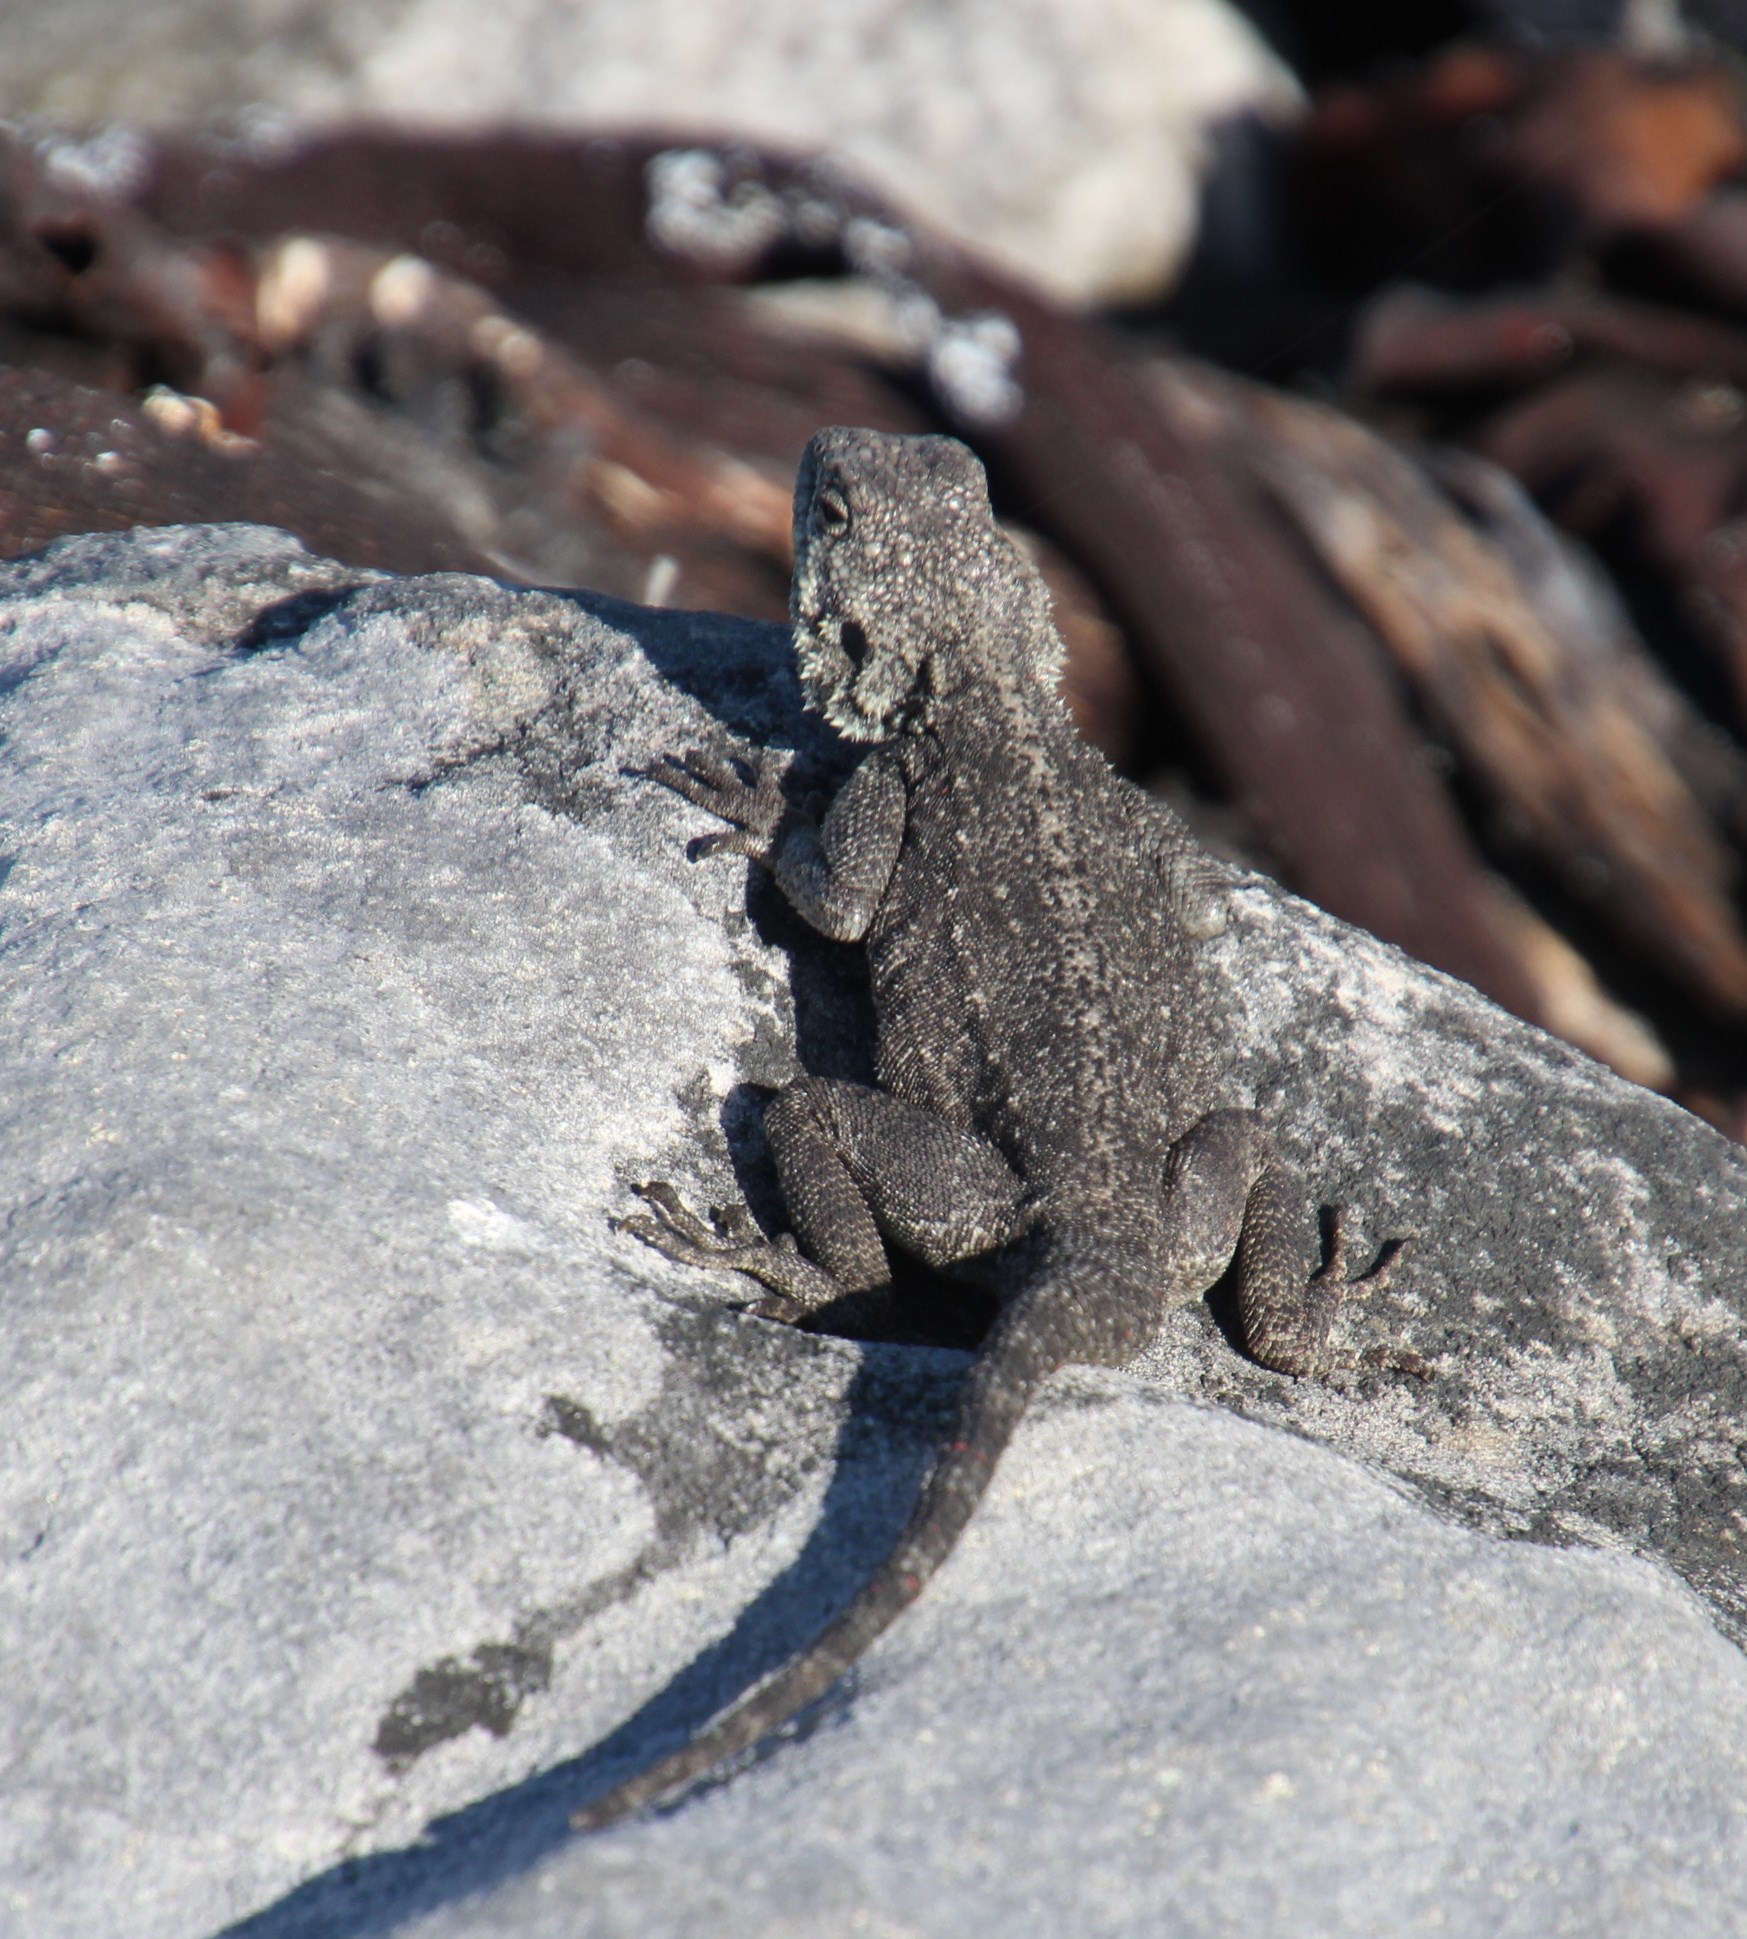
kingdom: Animalia
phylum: Chordata
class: Squamata
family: Agamidae
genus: Agama
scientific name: Agama atra
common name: Southern african rock agama
